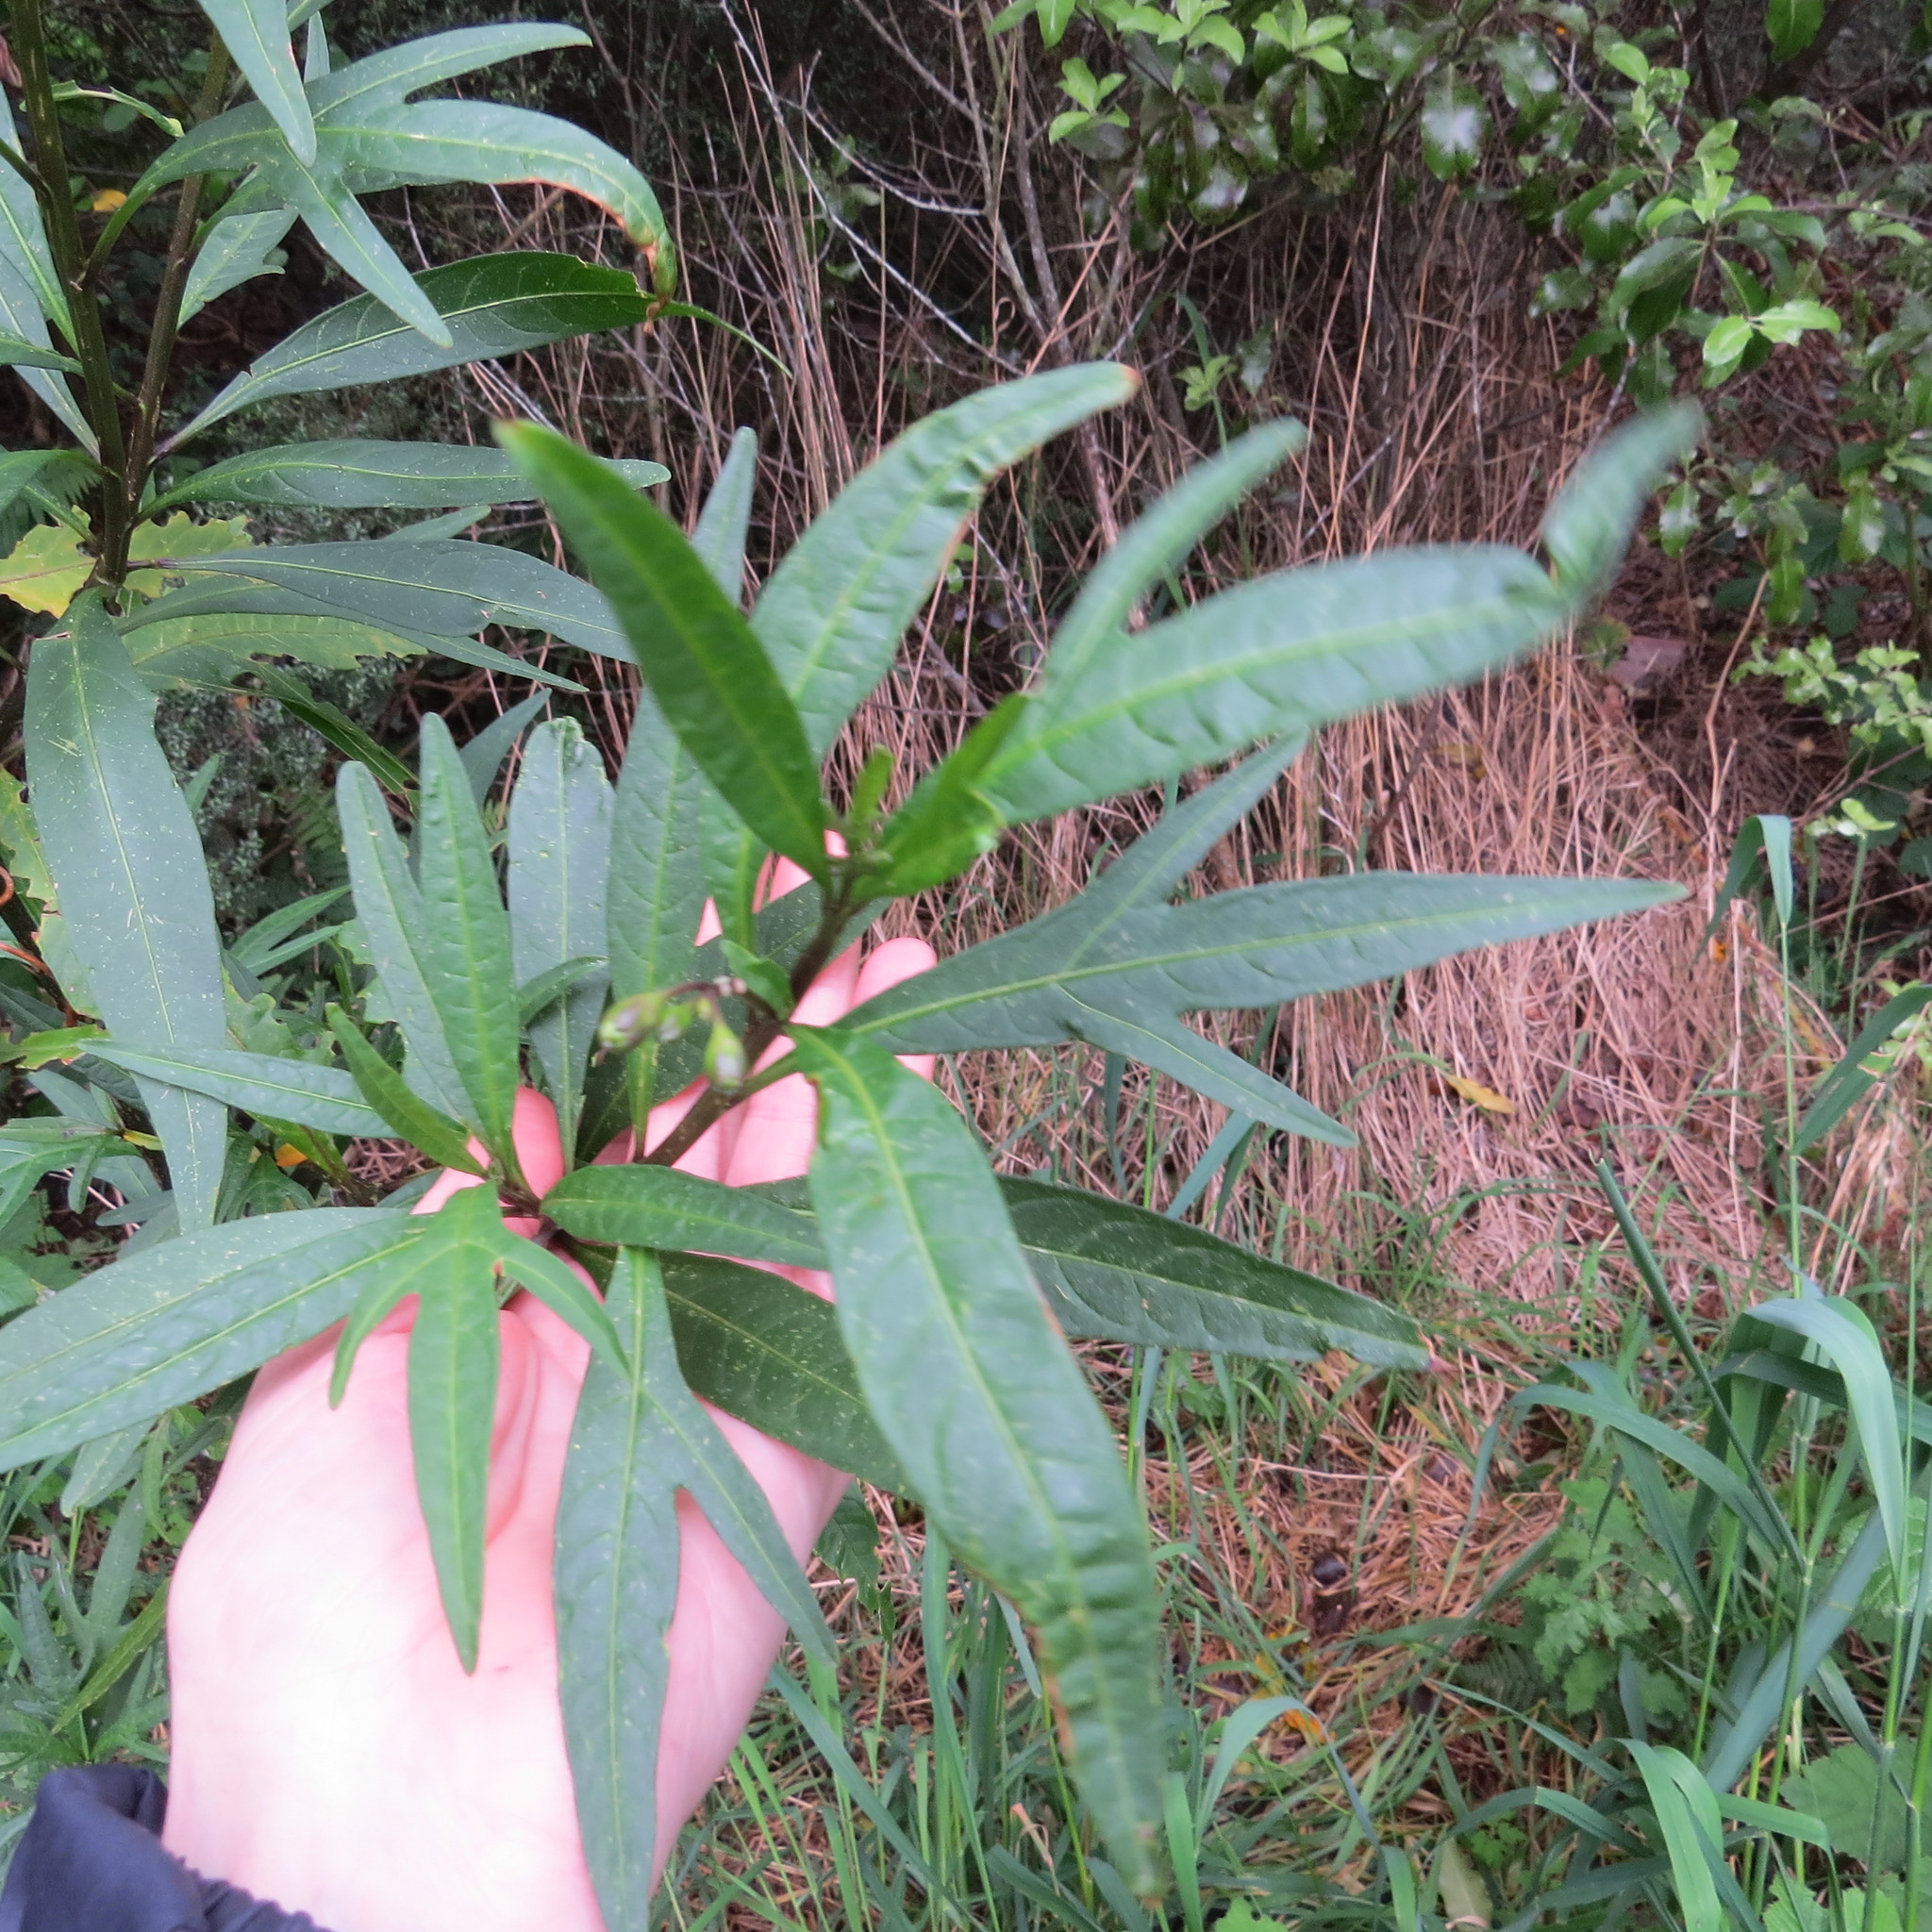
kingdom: Plantae
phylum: Tracheophyta
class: Magnoliopsida
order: Solanales
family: Solanaceae
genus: Solanum
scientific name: Solanum
